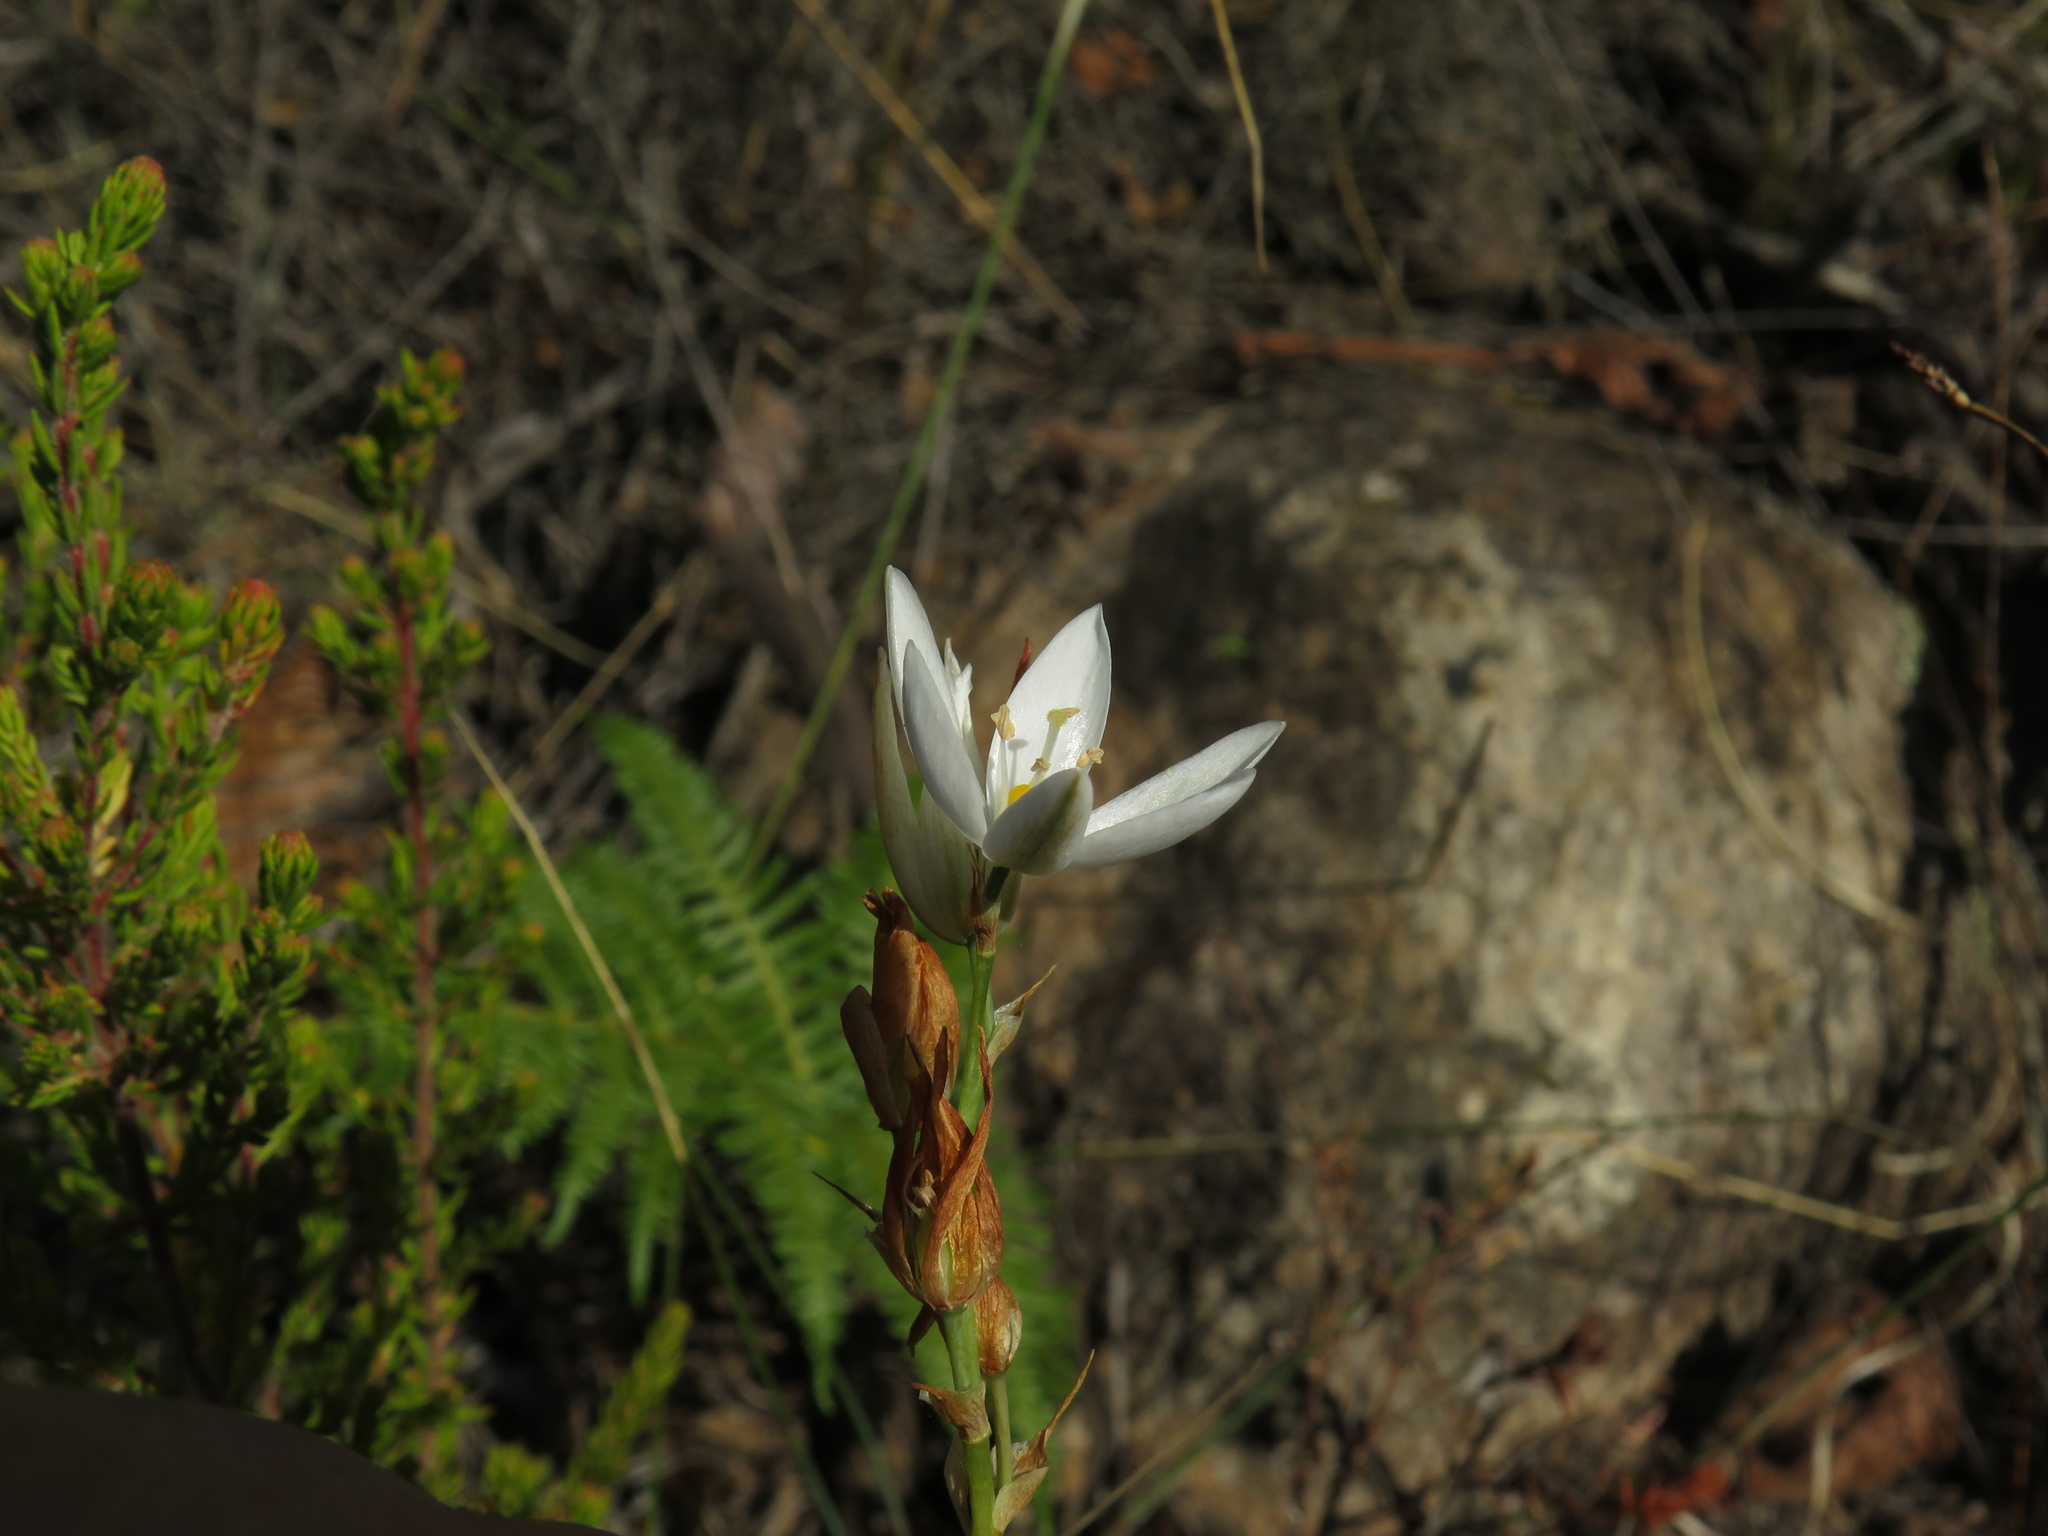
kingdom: Plantae
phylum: Tracheophyta
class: Liliopsida
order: Asparagales
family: Asparagaceae
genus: Ornithogalum
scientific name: Ornithogalum hispidum
